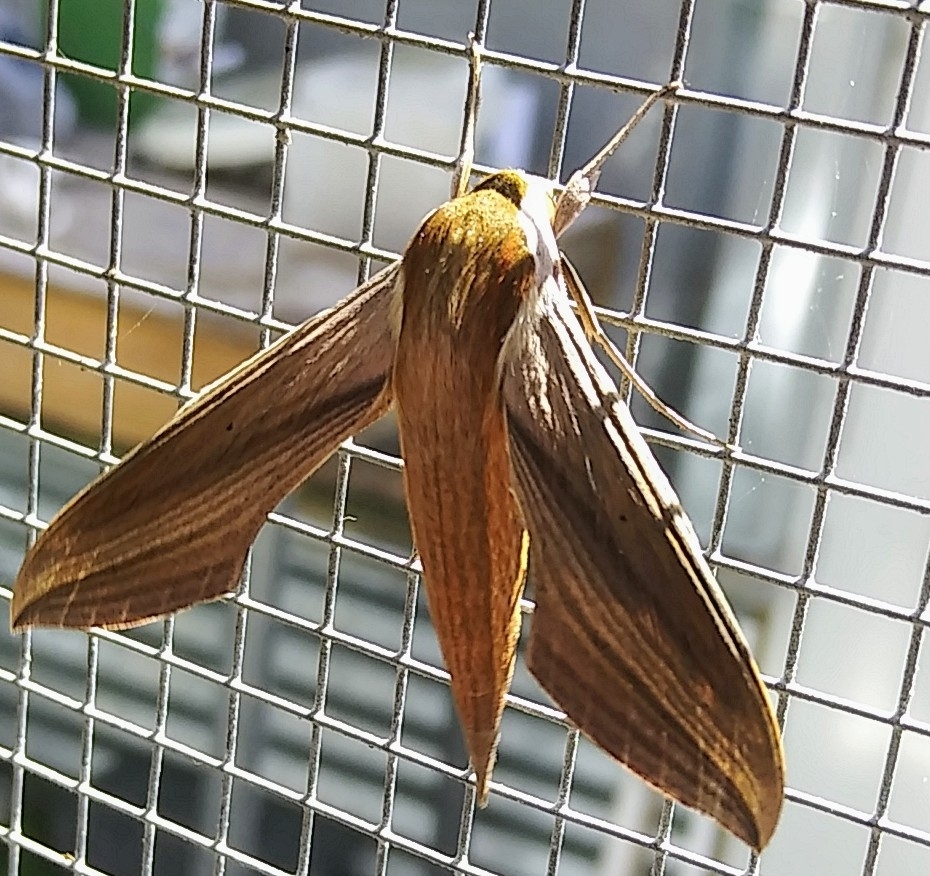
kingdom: Animalia
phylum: Arthropoda
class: Insecta
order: Lepidoptera
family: Sphingidae
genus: Xylophanes
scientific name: Xylophanes tersa
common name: Tersa sphinx
